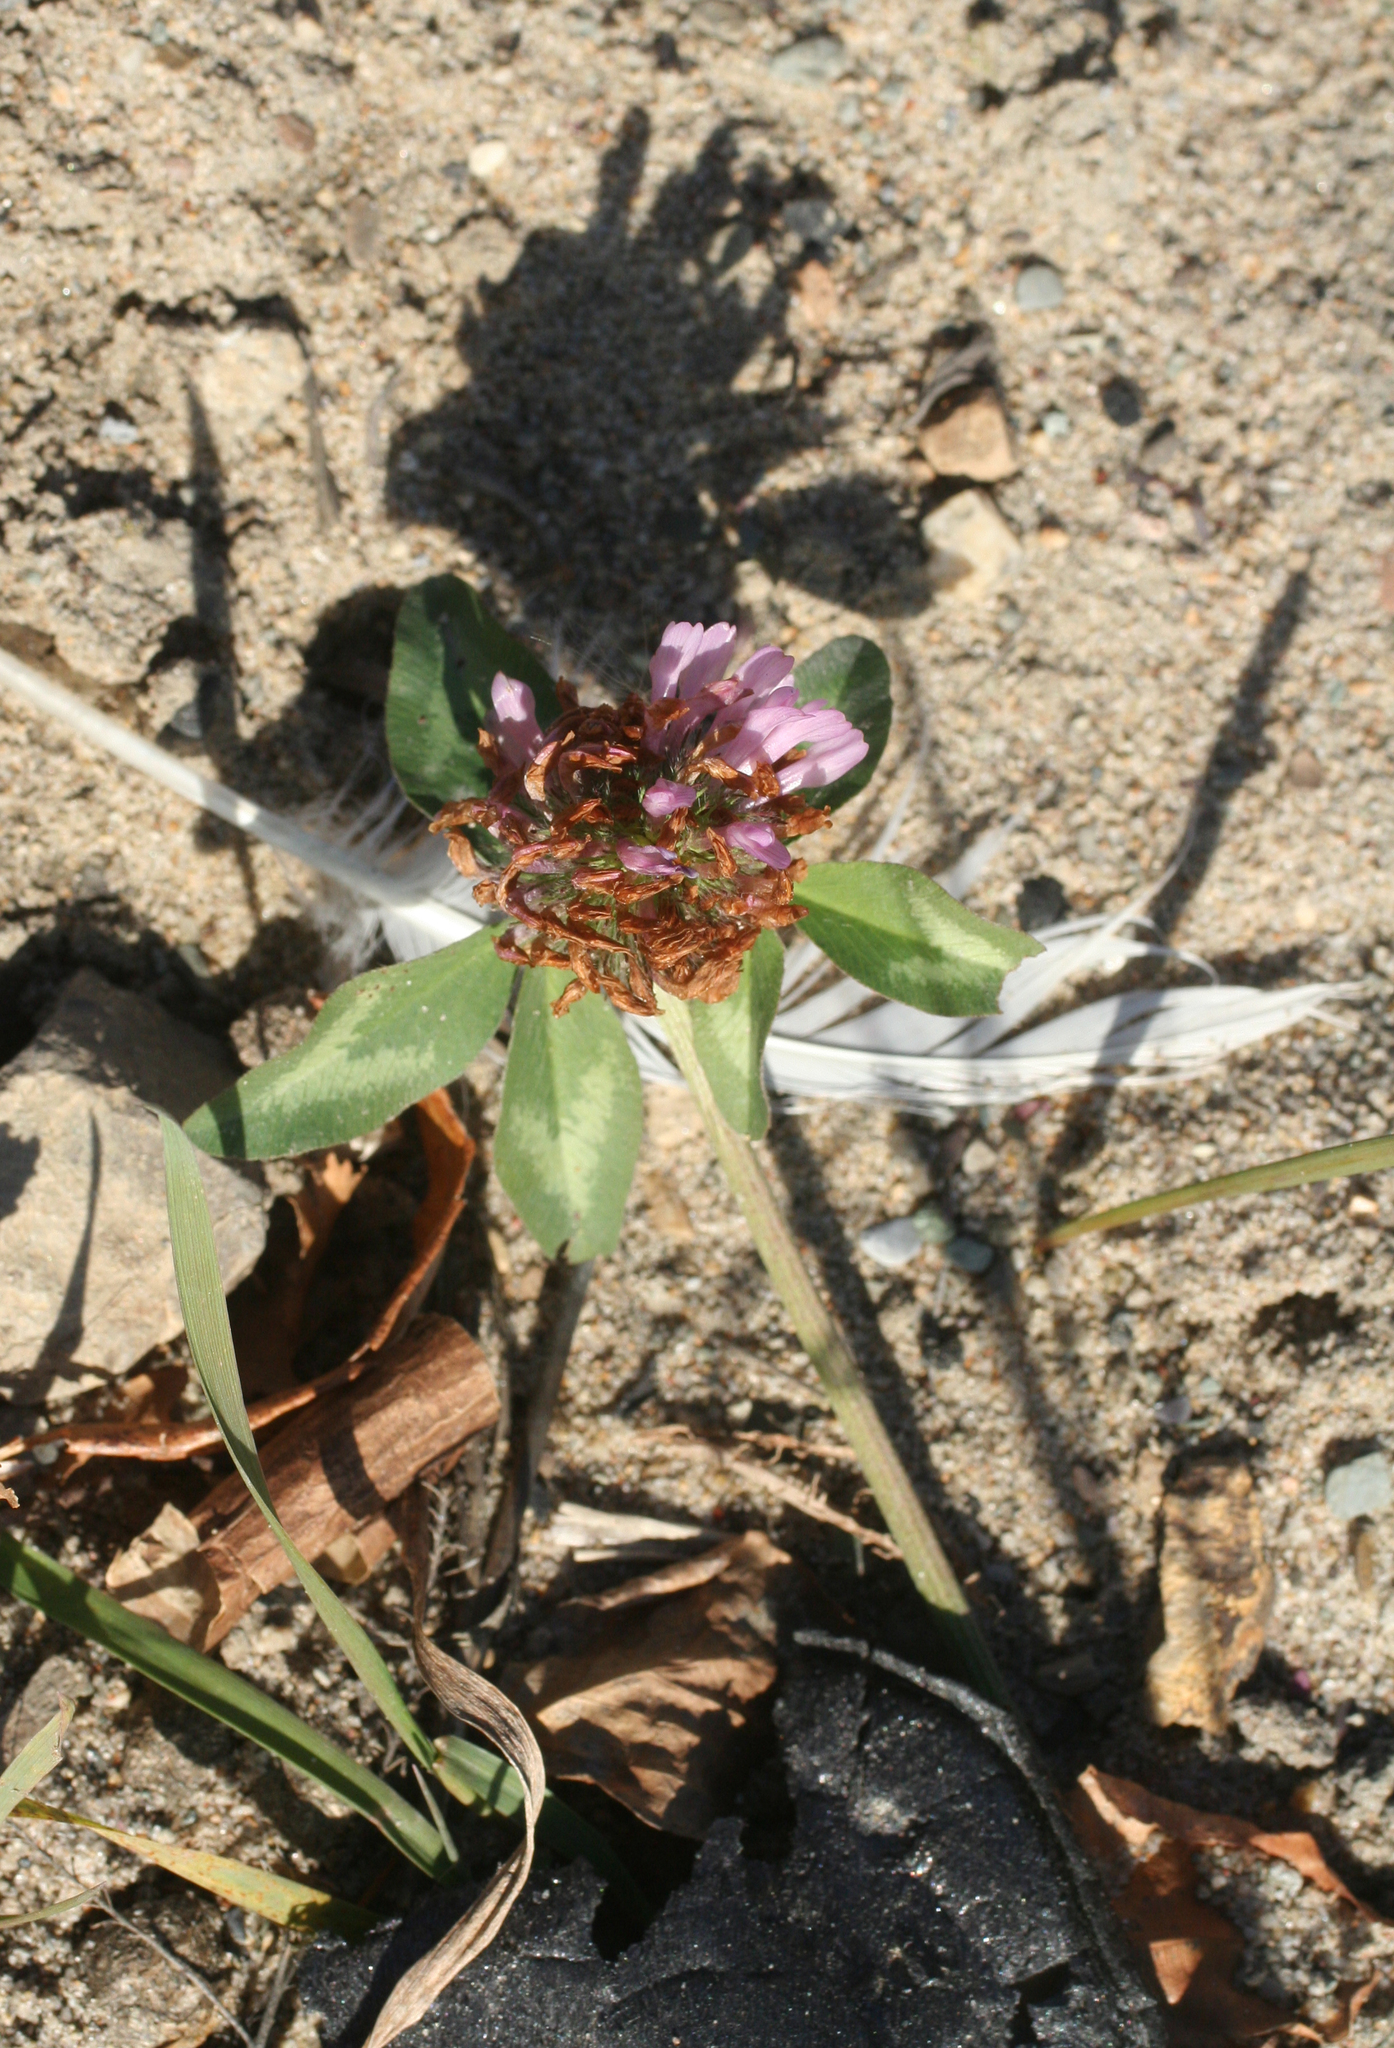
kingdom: Plantae
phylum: Tracheophyta
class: Magnoliopsida
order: Fabales
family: Fabaceae
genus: Trifolium
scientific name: Trifolium pratense
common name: Red clover
